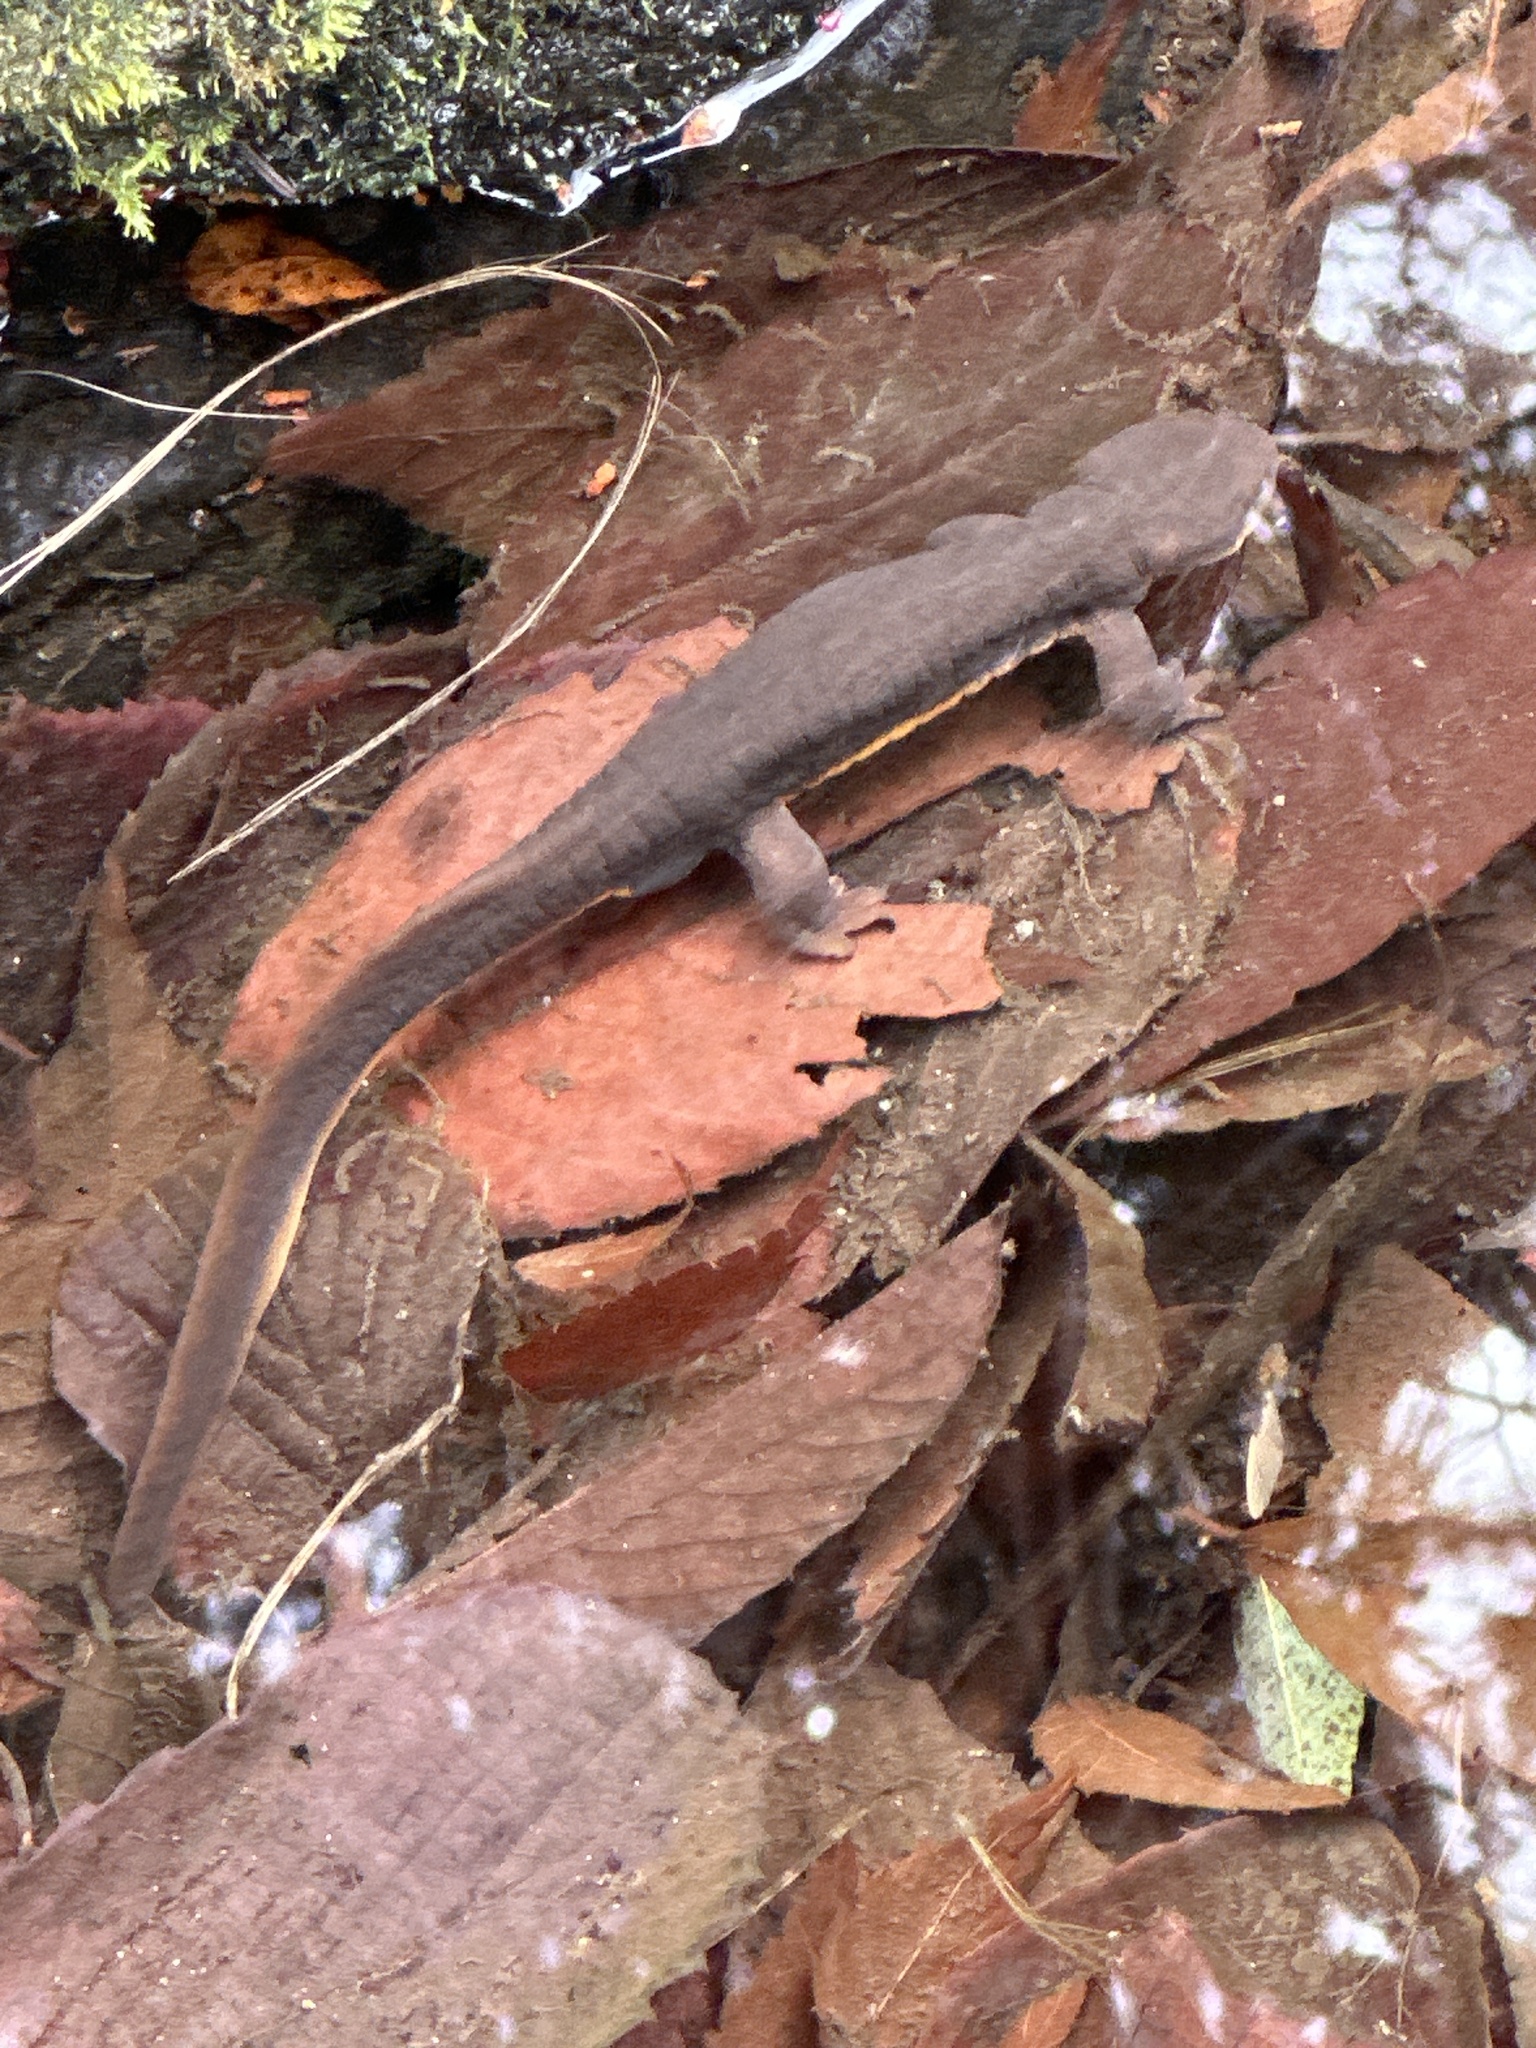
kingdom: Animalia
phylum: Chordata
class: Amphibia
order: Caudata
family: Salamandridae
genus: Taricha
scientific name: Taricha granulosa
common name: Roughskin newt
